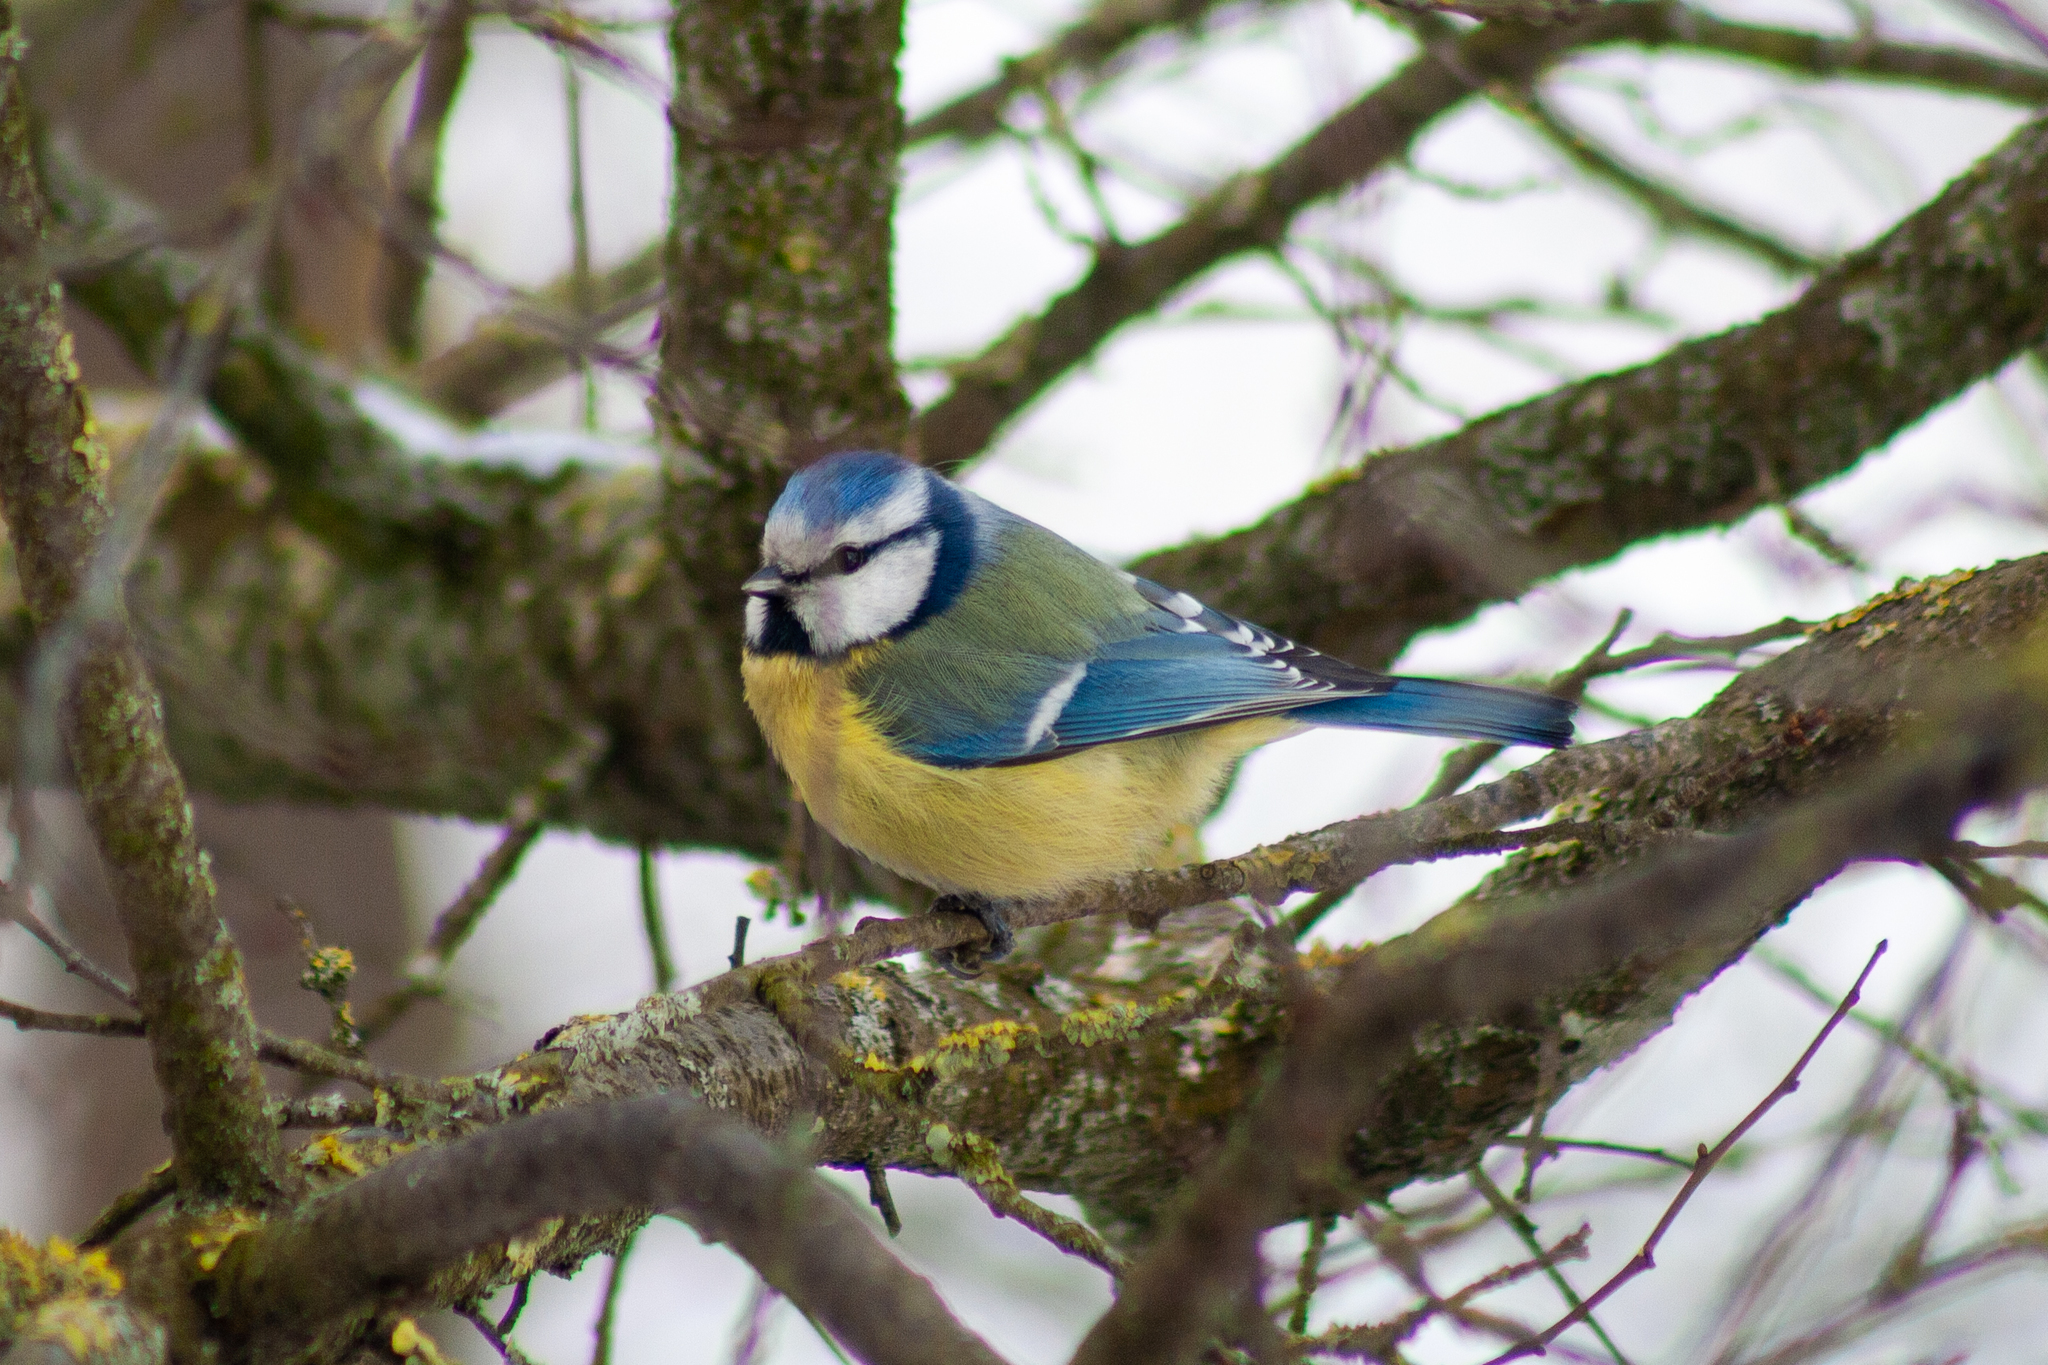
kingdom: Animalia
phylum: Chordata
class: Aves
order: Passeriformes
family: Paridae
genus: Cyanistes
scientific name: Cyanistes caeruleus
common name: Eurasian blue tit
